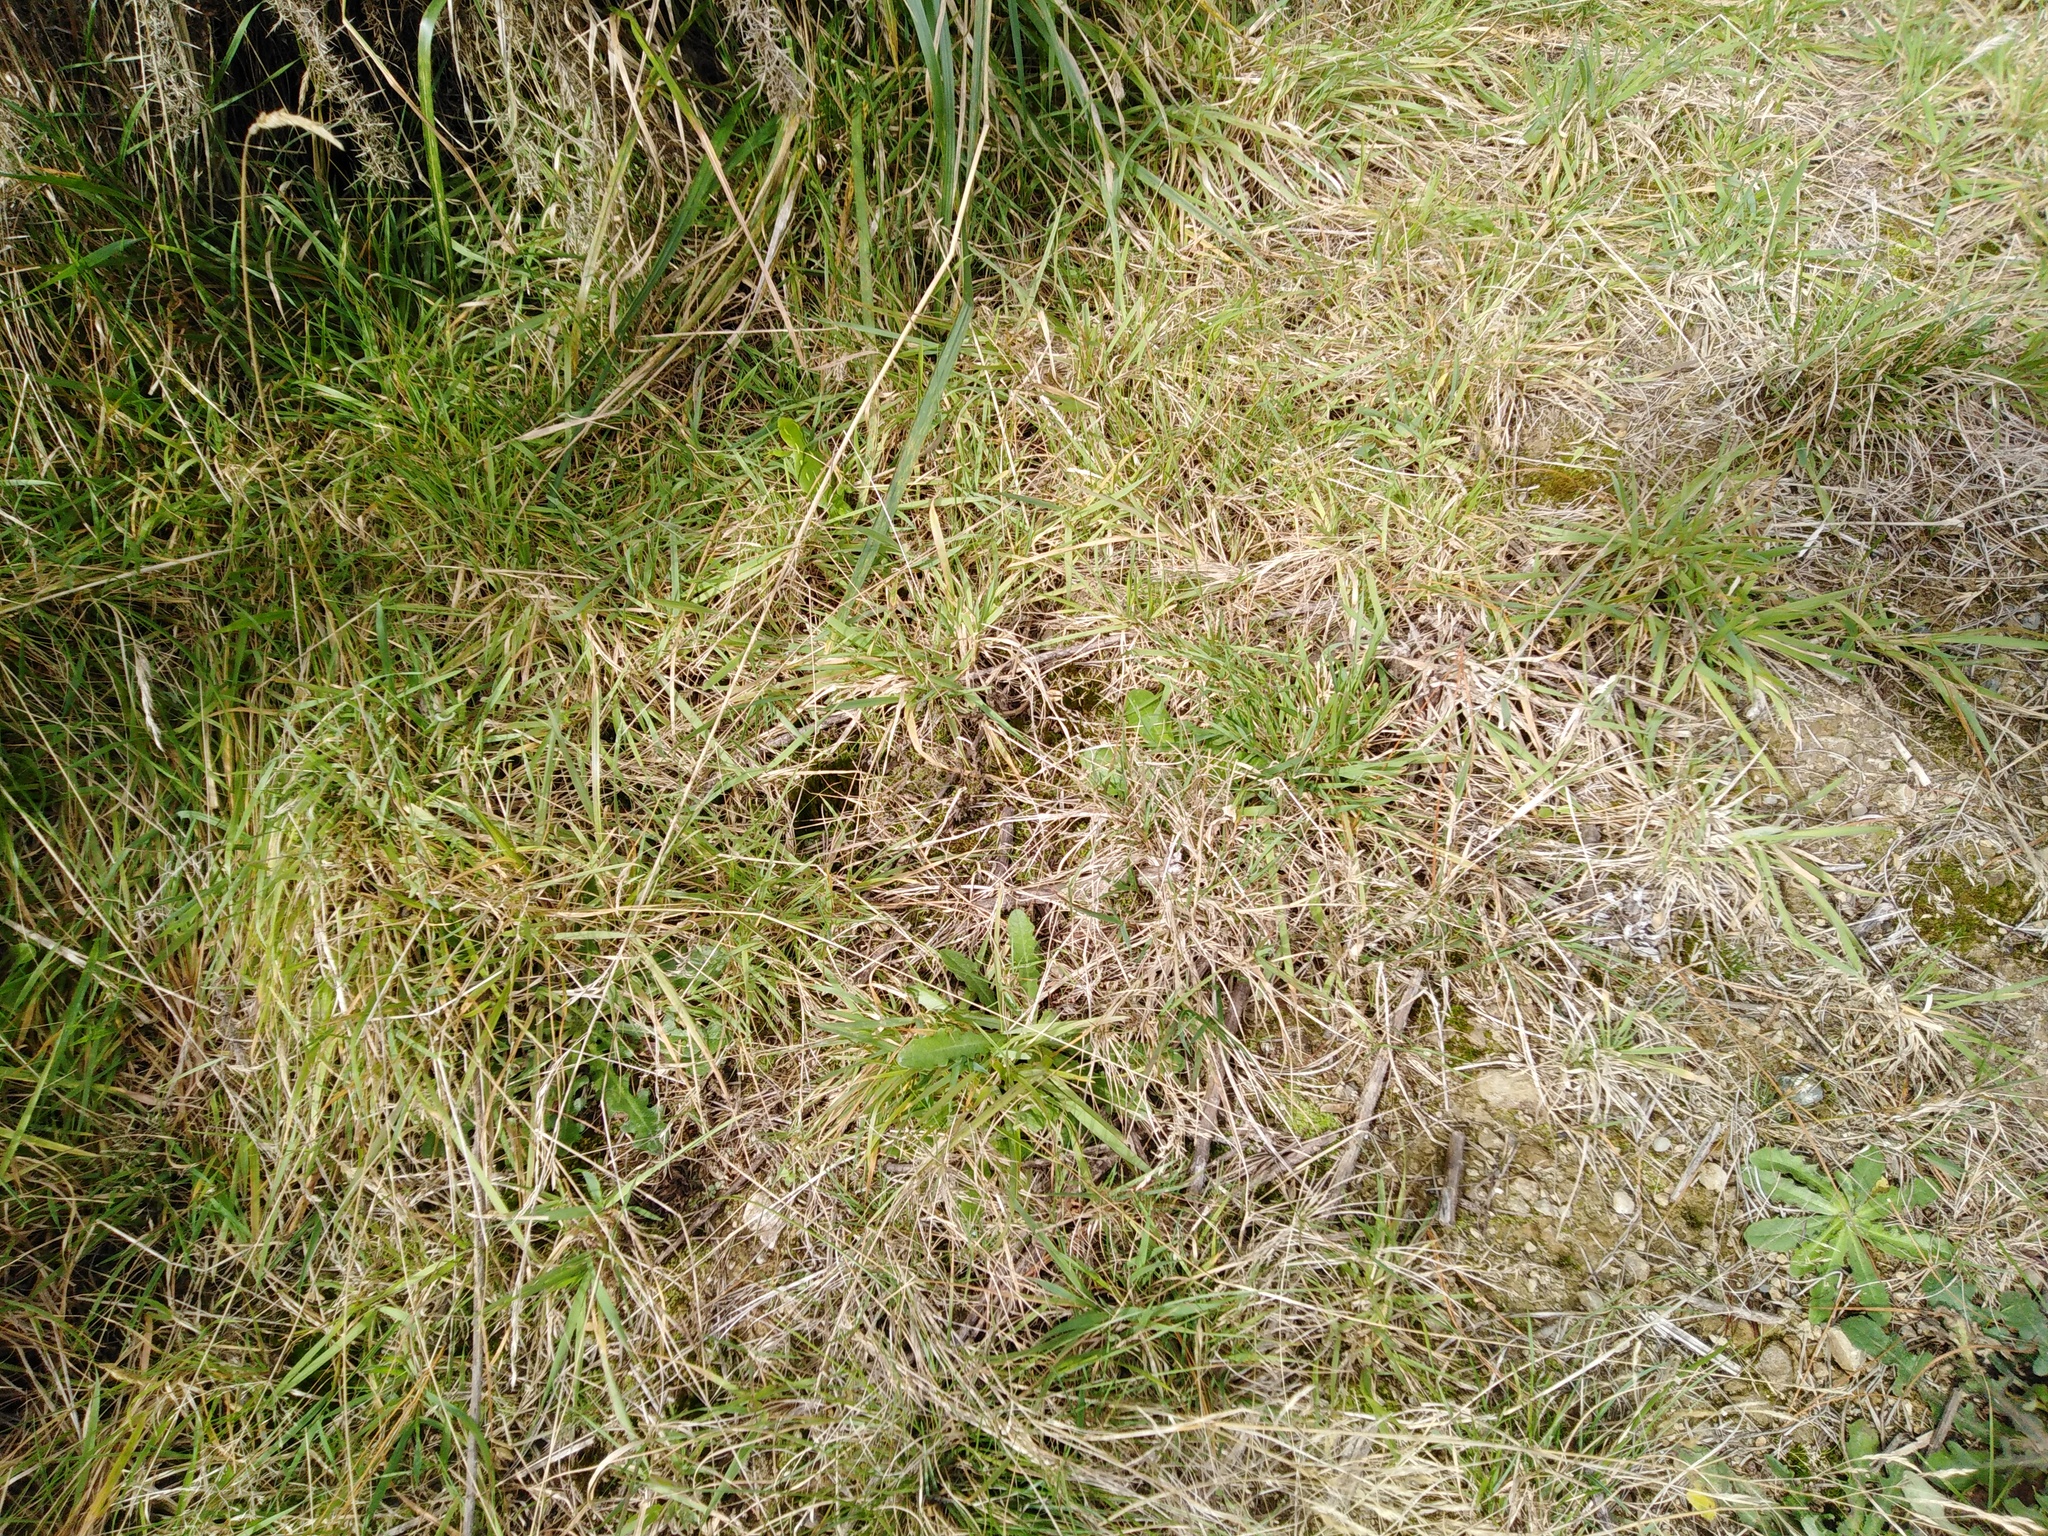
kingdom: Animalia
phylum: Chordata
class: Squamata
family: Diplodactylidae
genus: Naultinus
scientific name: Naultinus punctatus
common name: Wellington green gecko
